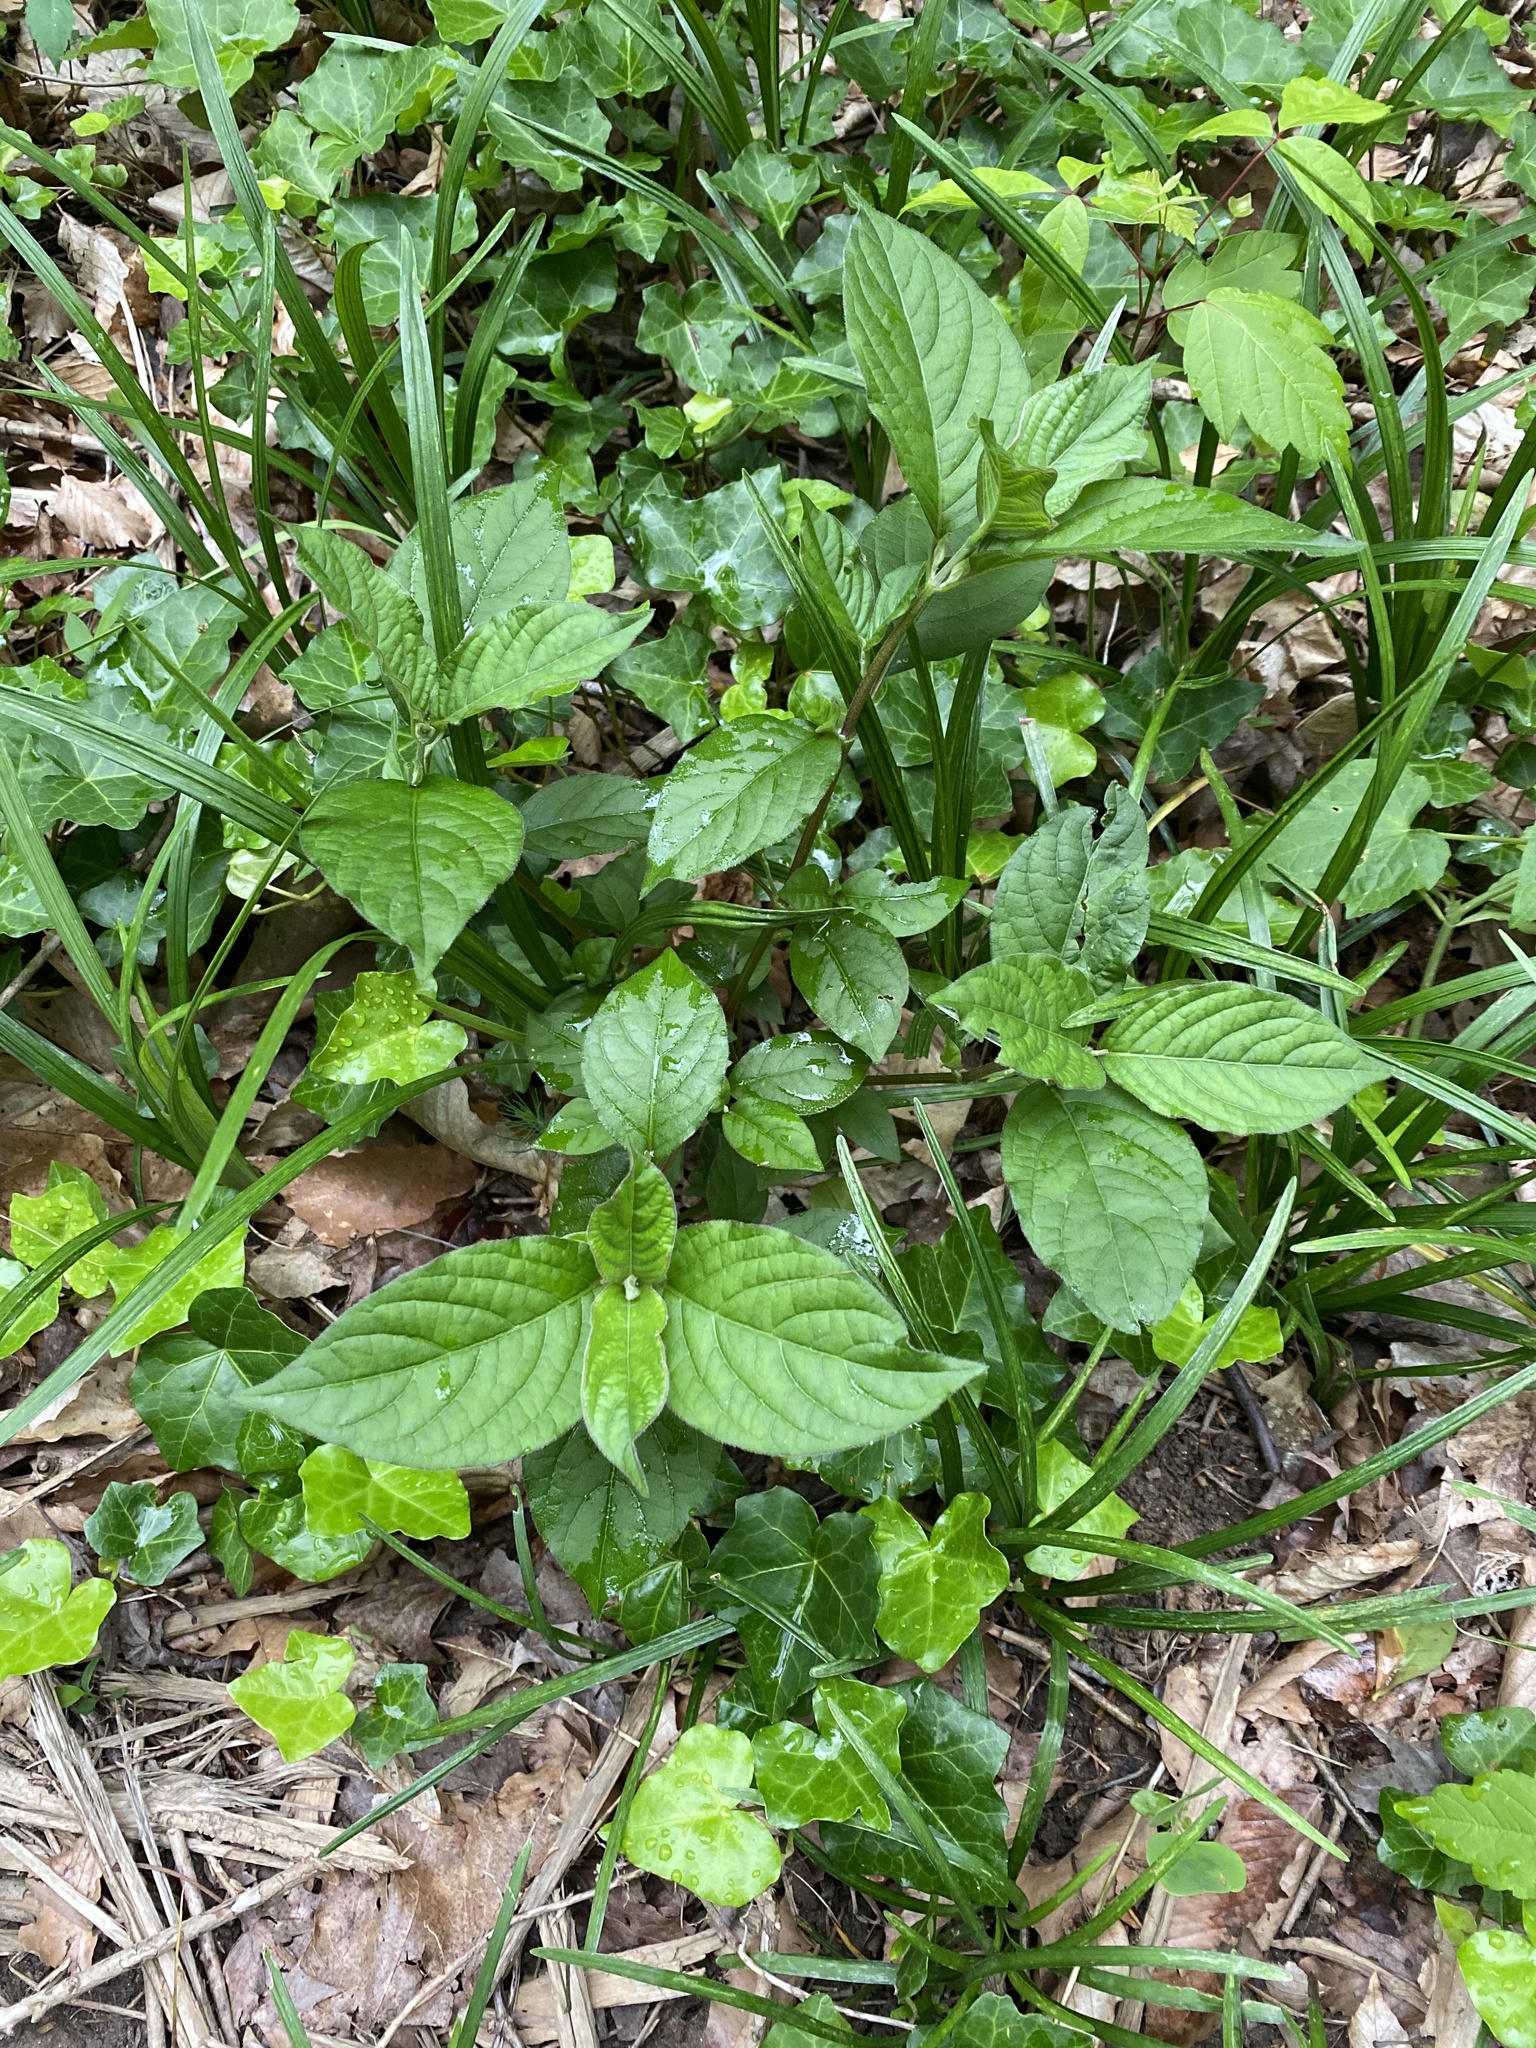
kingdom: Plantae
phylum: Tracheophyta
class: Magnoliopsida
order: Caryophyllales
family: Amaranthaceae
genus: Achyranthes
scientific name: Achyranthes bidentata
